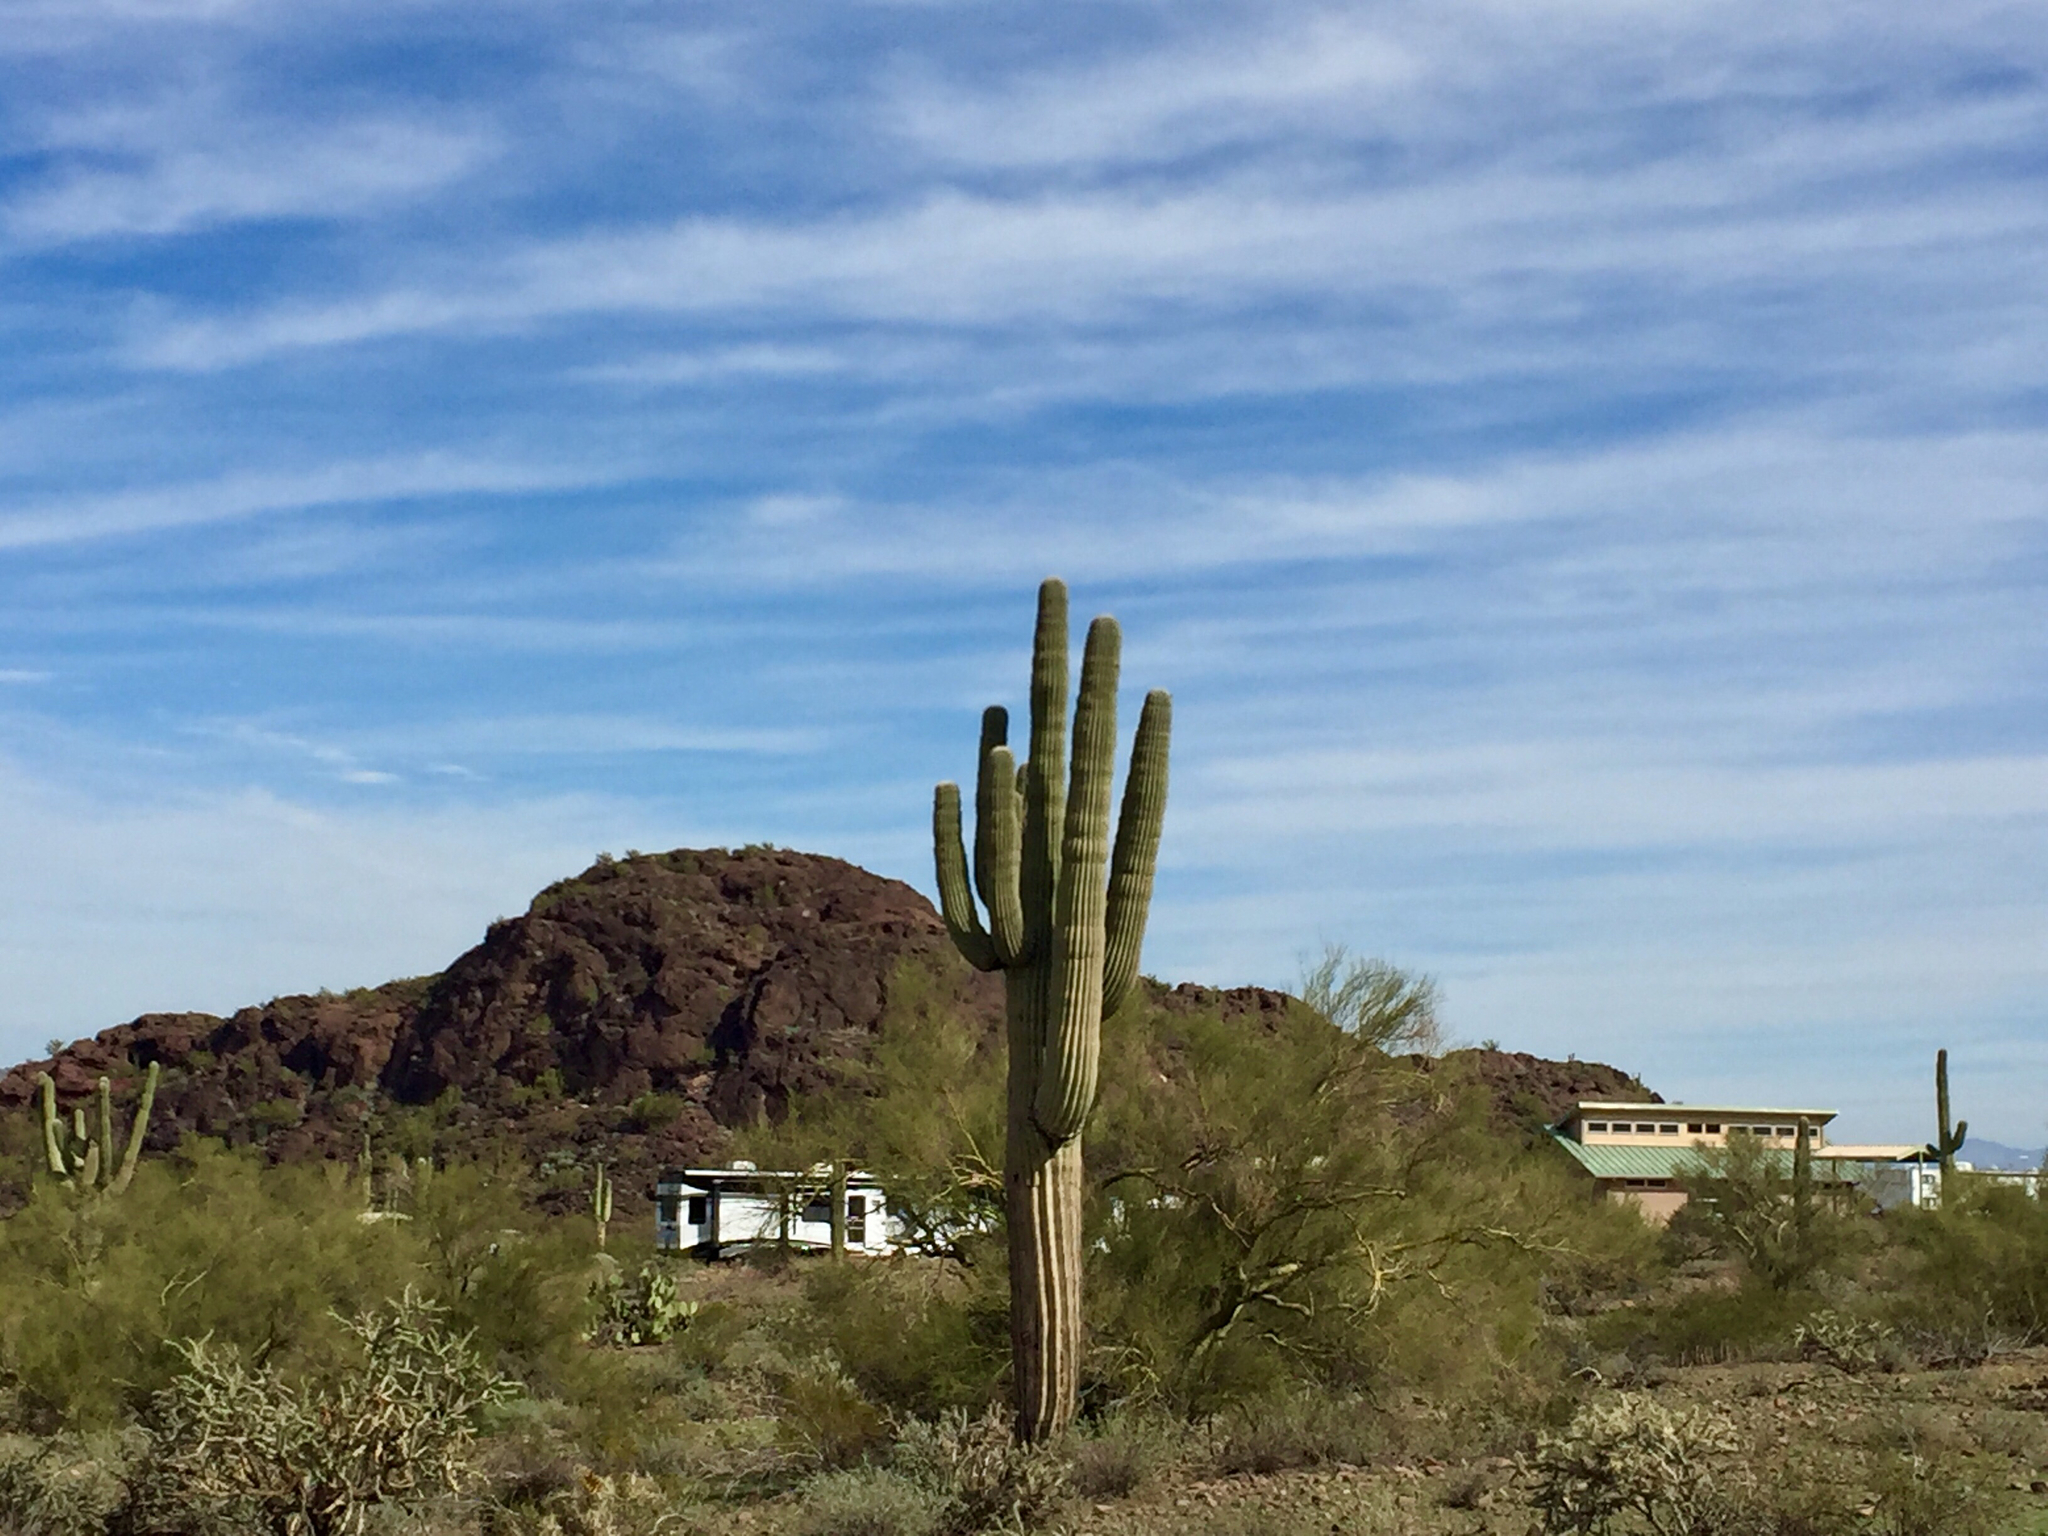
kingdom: Plantae
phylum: Tracheophyta
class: Magnoliopsida
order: Caryophyllales
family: Cactaceae
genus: Carnegiea
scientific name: Carnegiea gigantea
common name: Saguaro
